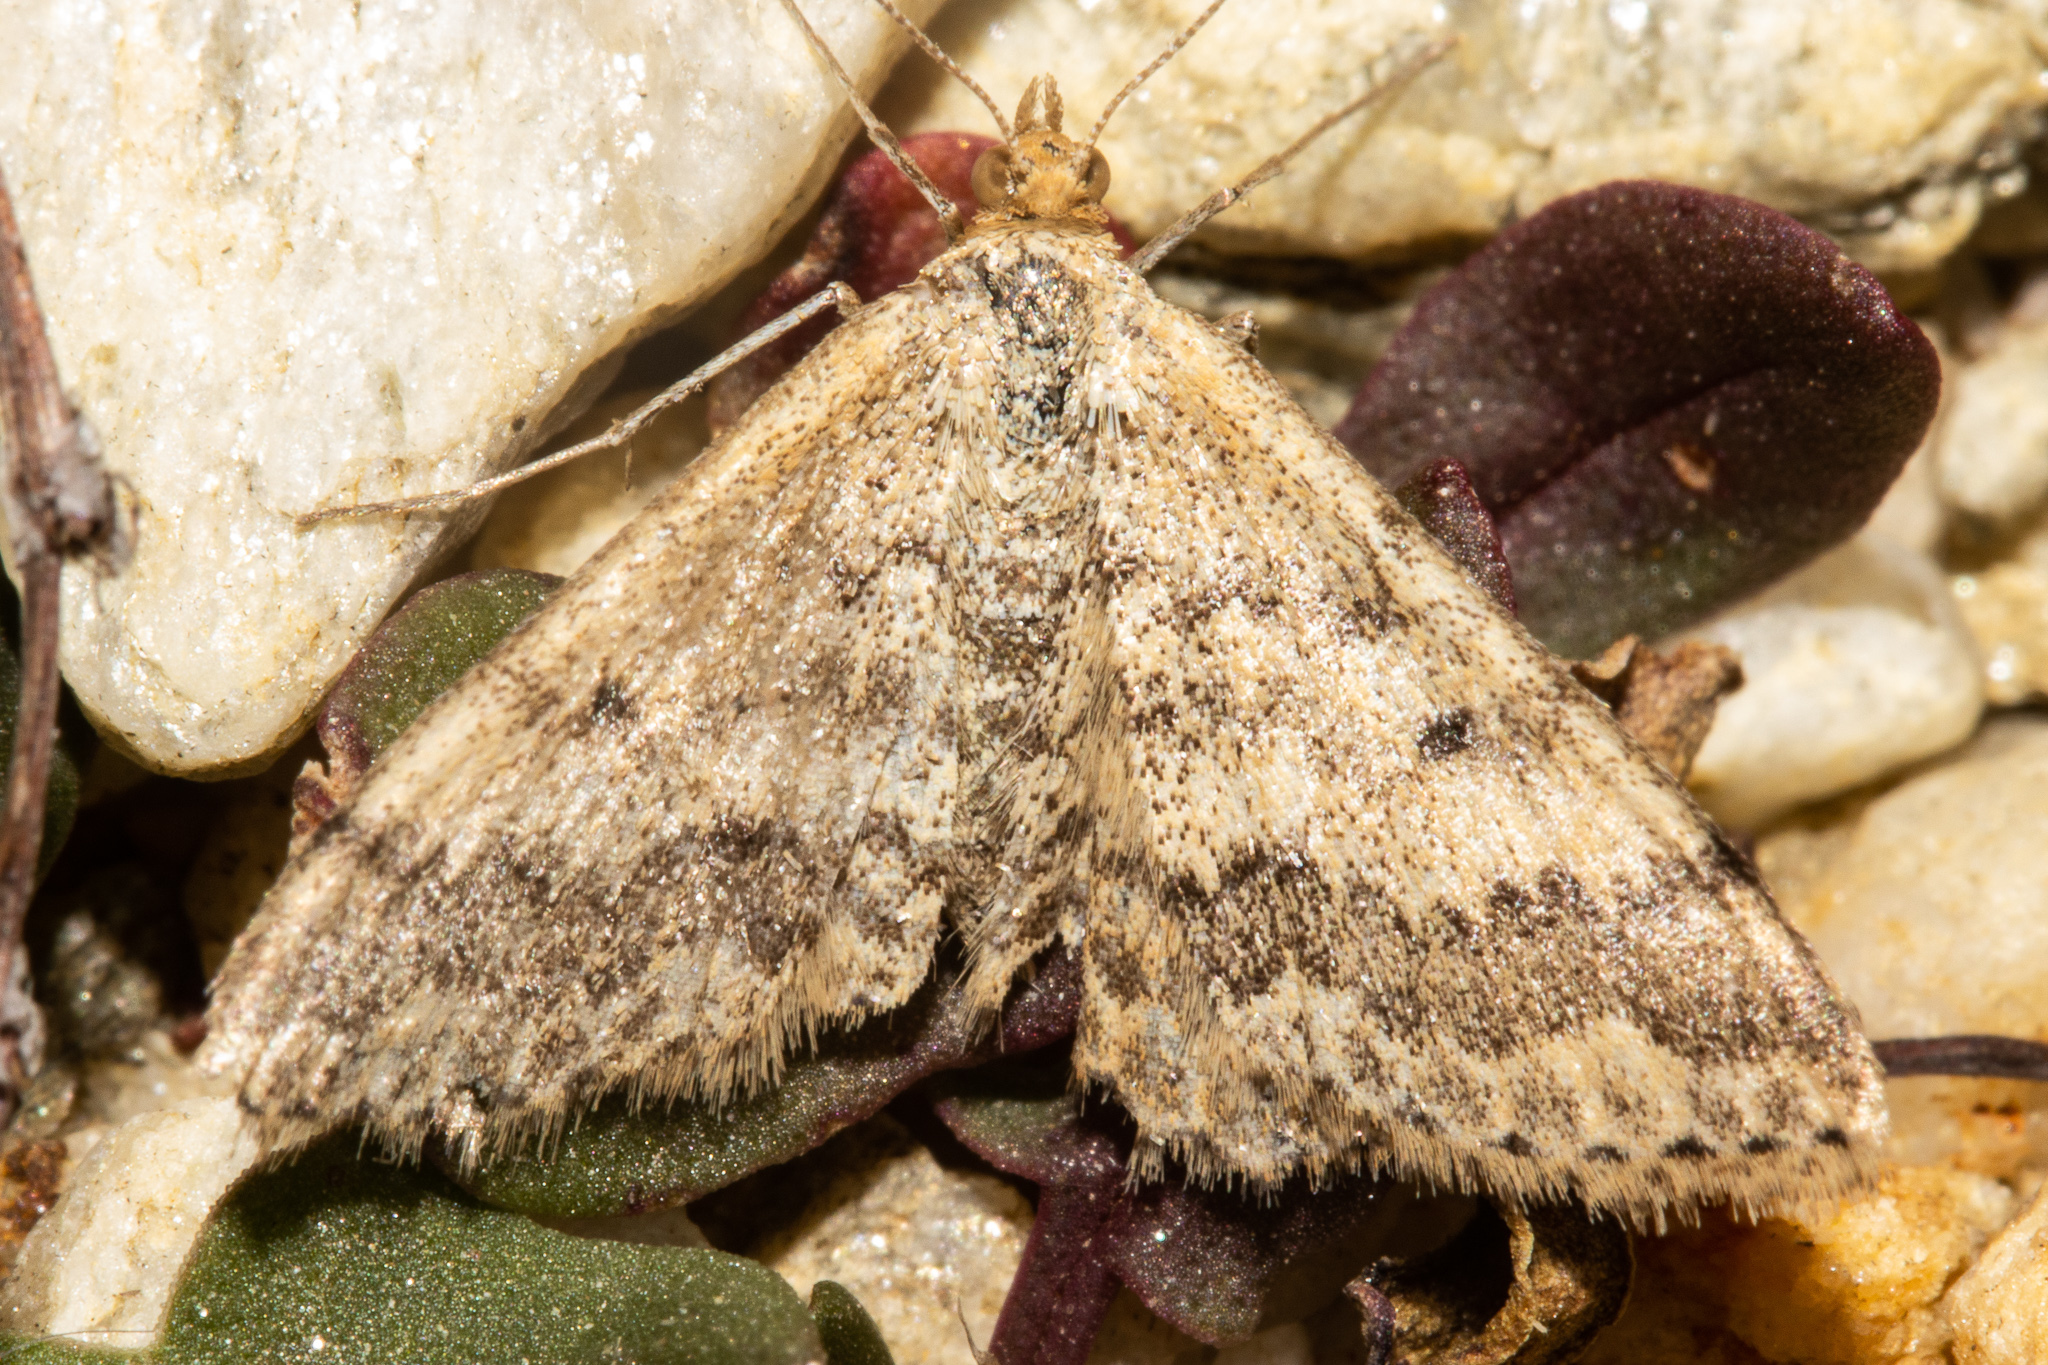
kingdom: Animalia
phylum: Arthropoda
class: Insecta
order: Lepidoptera
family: Geometridae
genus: Scopula
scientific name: Scopula rubraria
